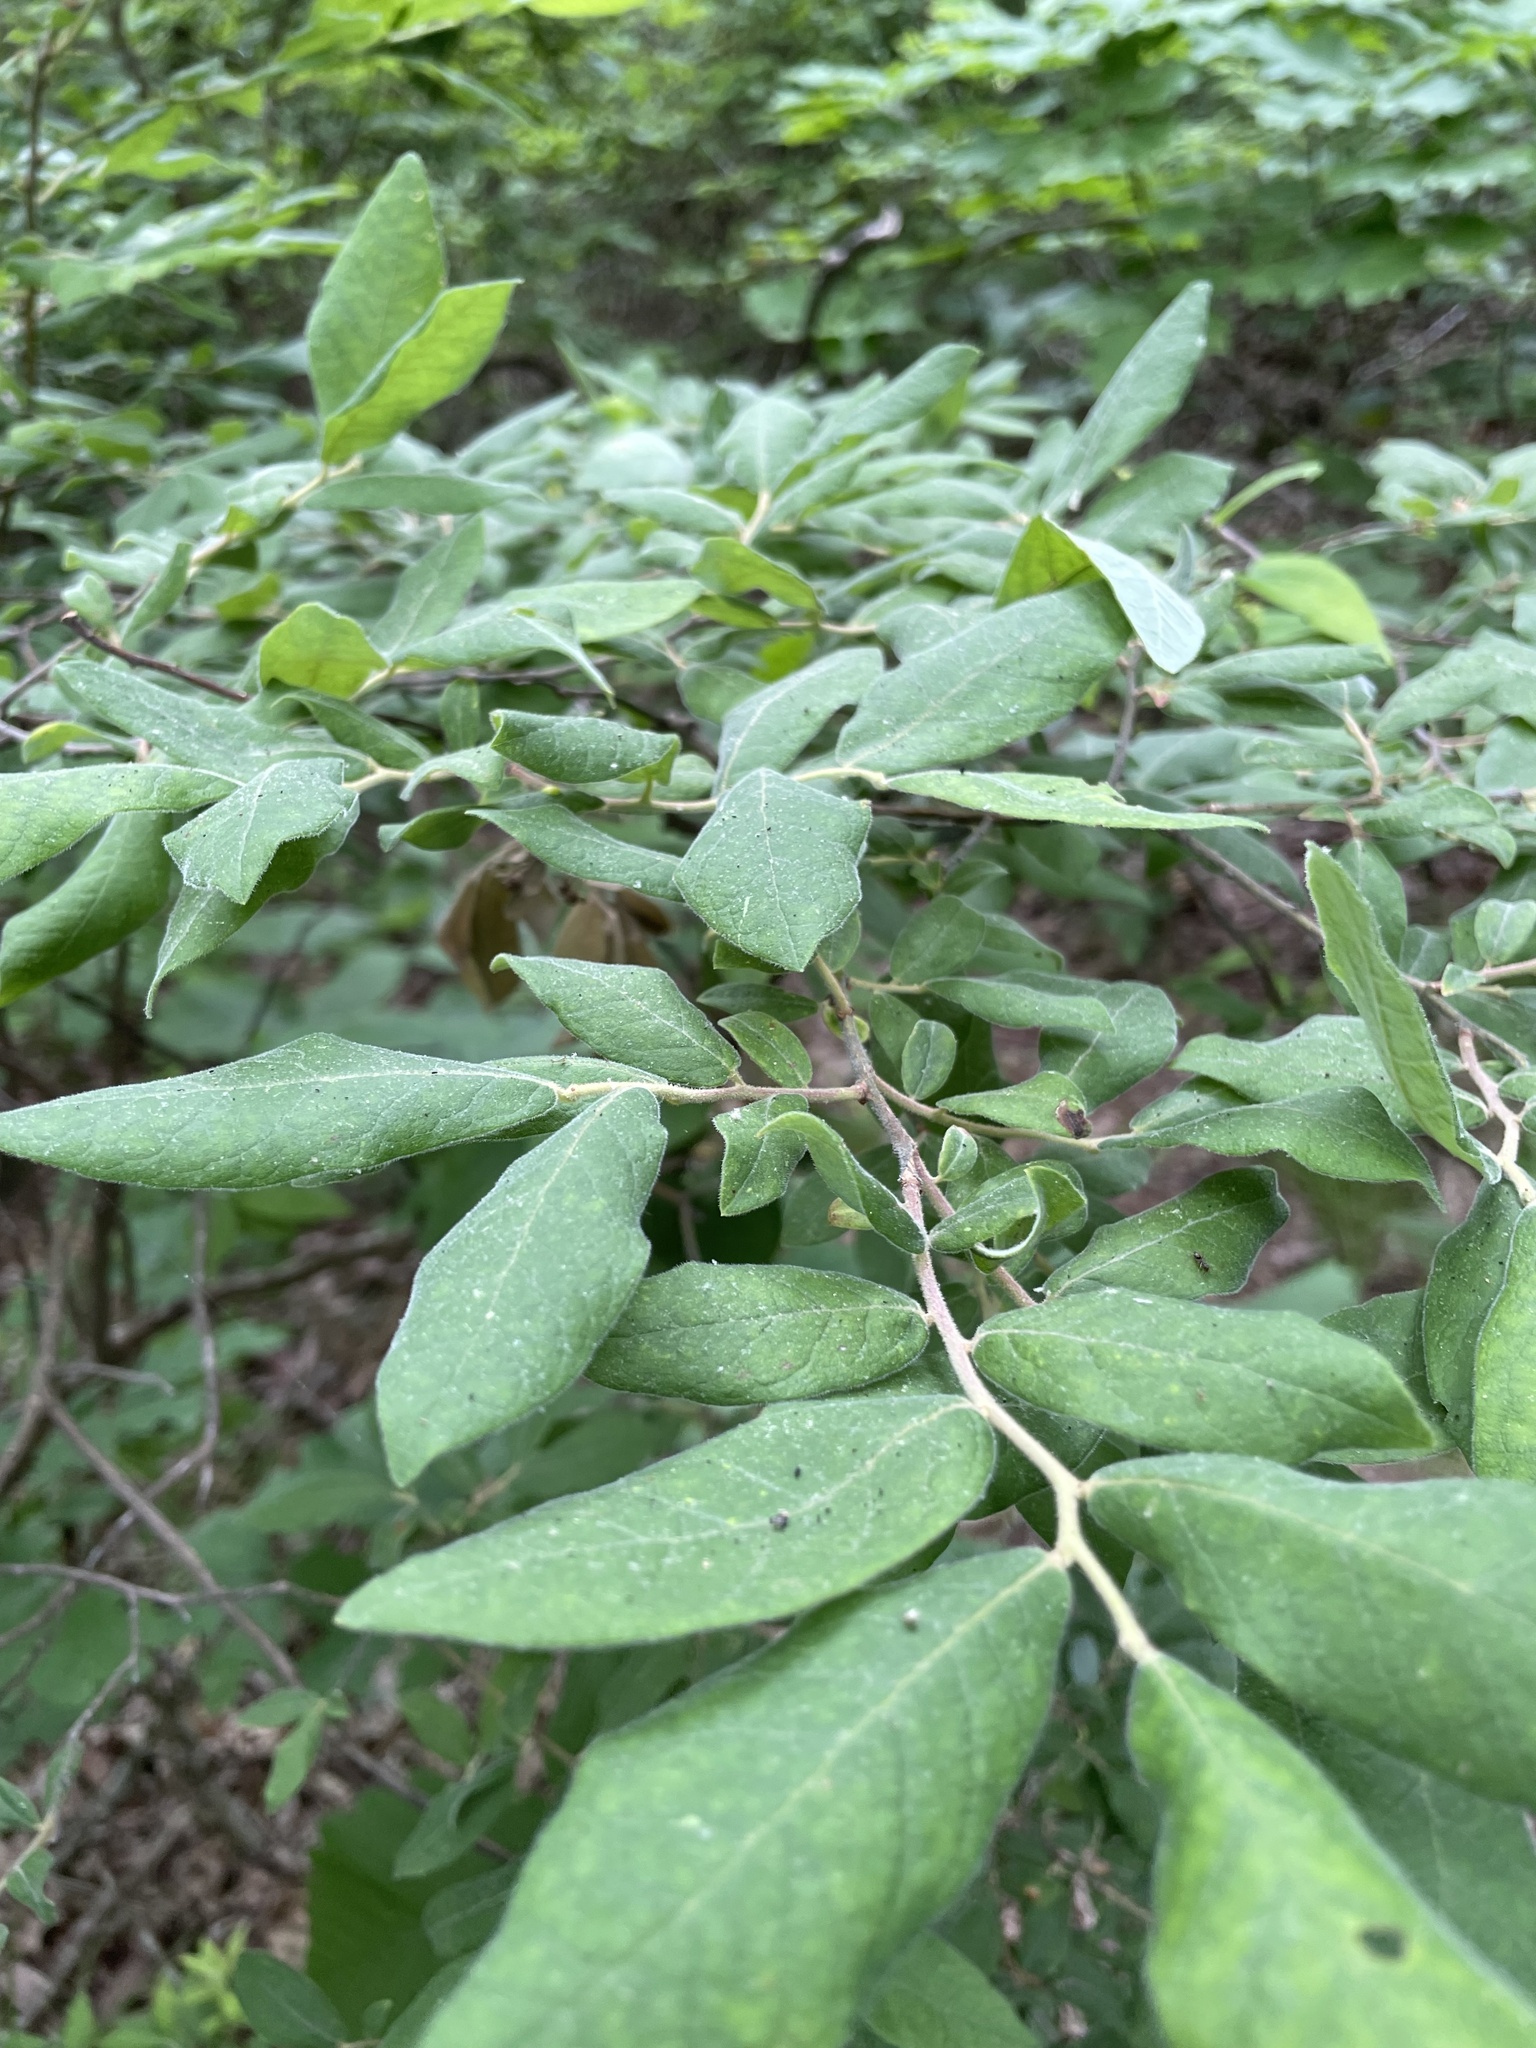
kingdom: Plantae
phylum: Tracheophyta
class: Magnoliopsida
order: Ericales
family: Ericaceae
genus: Vaccinium
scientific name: Vaccinium stamineum
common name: Deerberry
